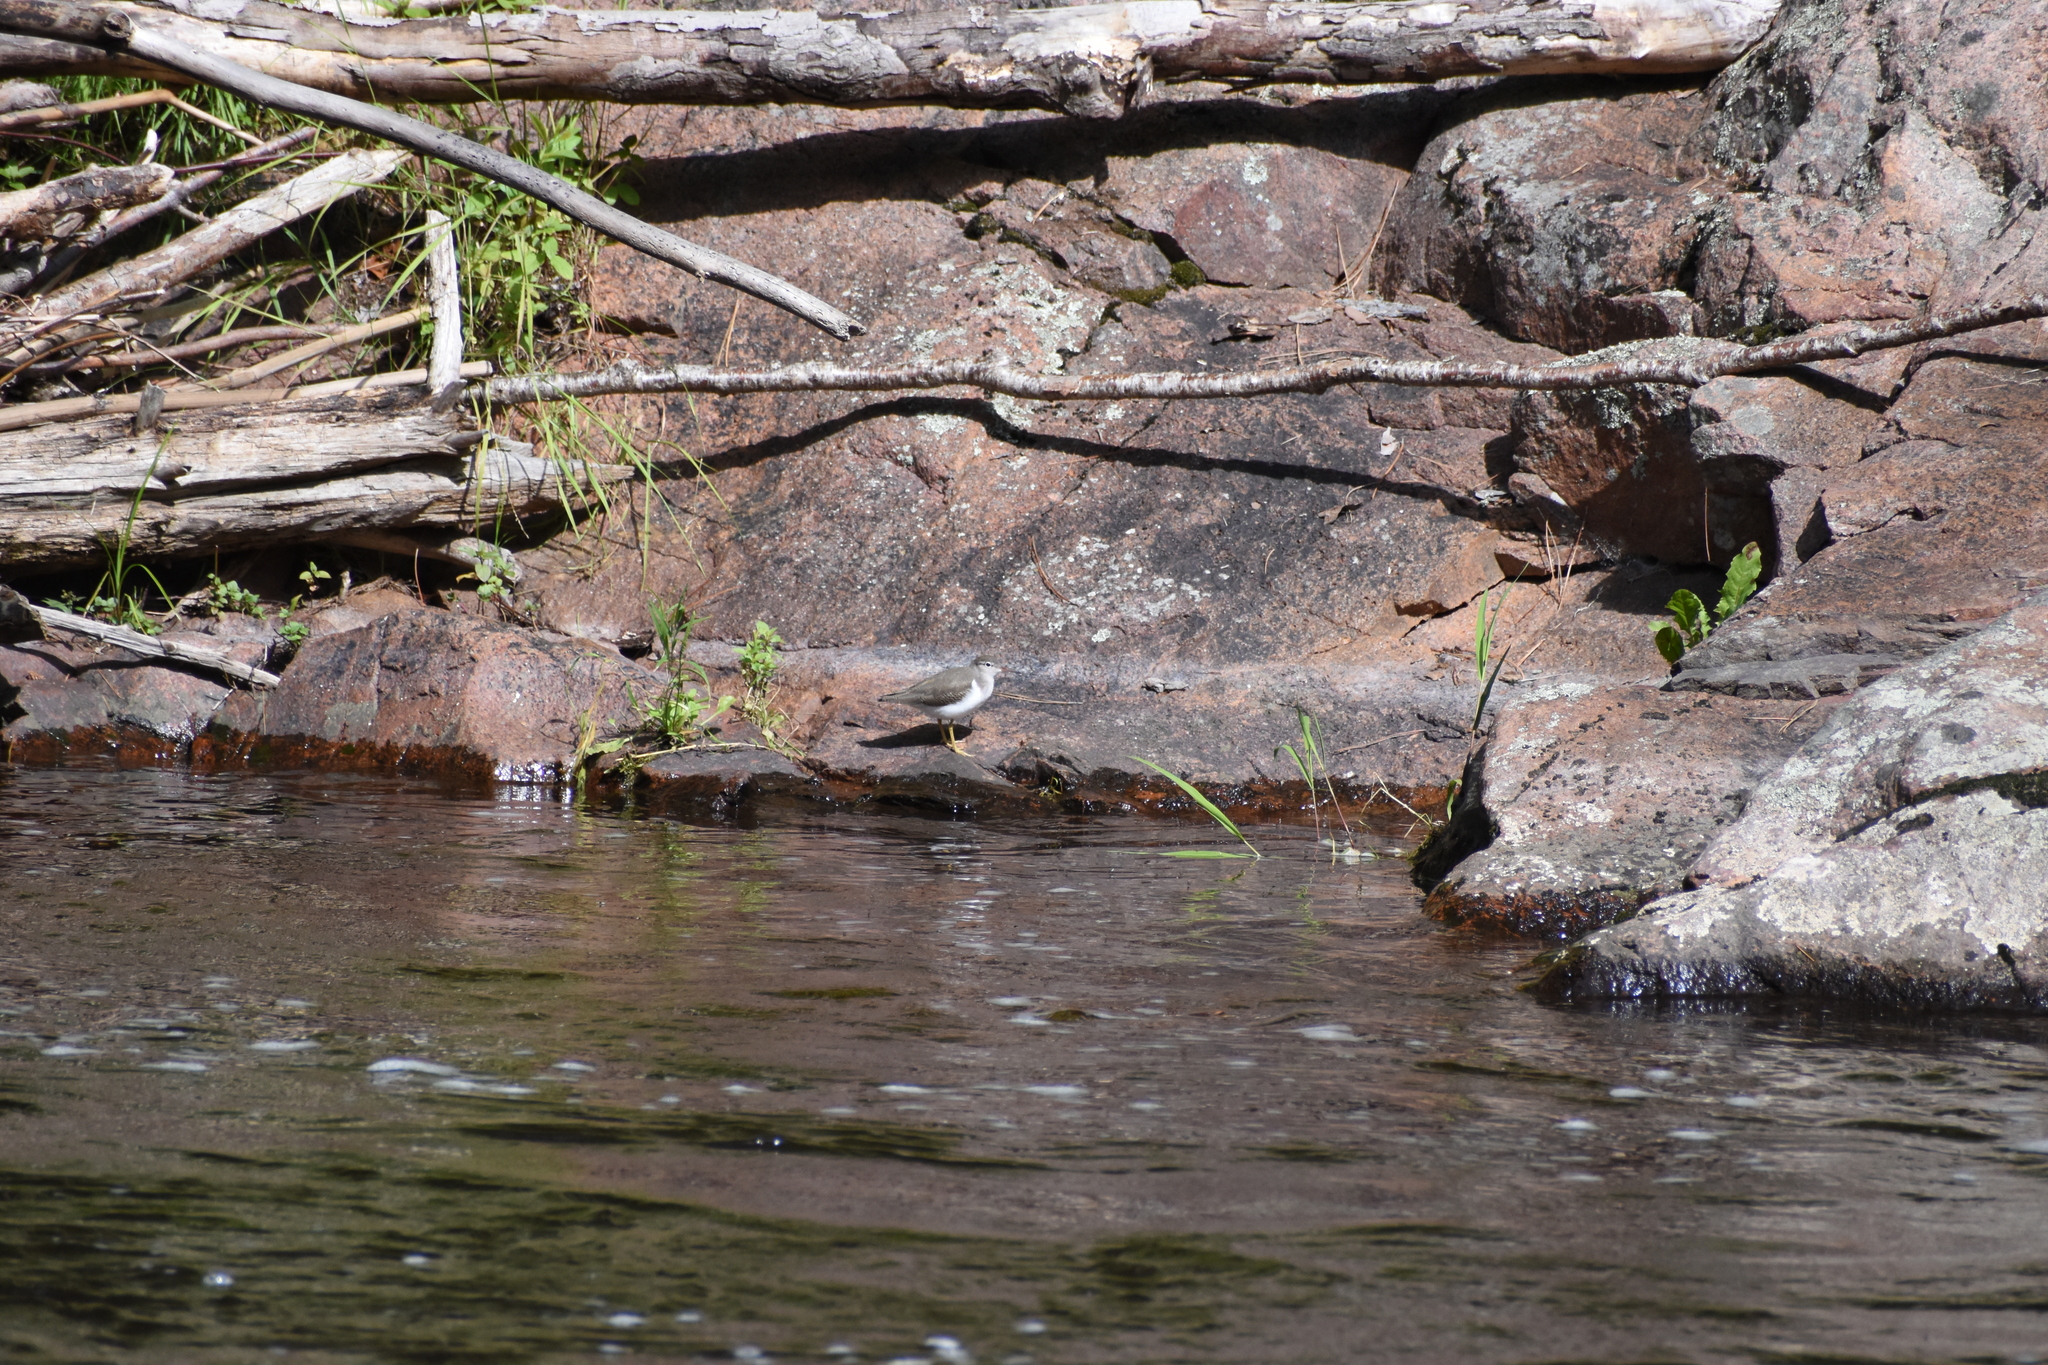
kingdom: Animalia
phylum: Chordata
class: Aves
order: Charadriiformes
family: Scolopacidae
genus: Actitis
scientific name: Actitis macularius
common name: Spotted sandpiper
